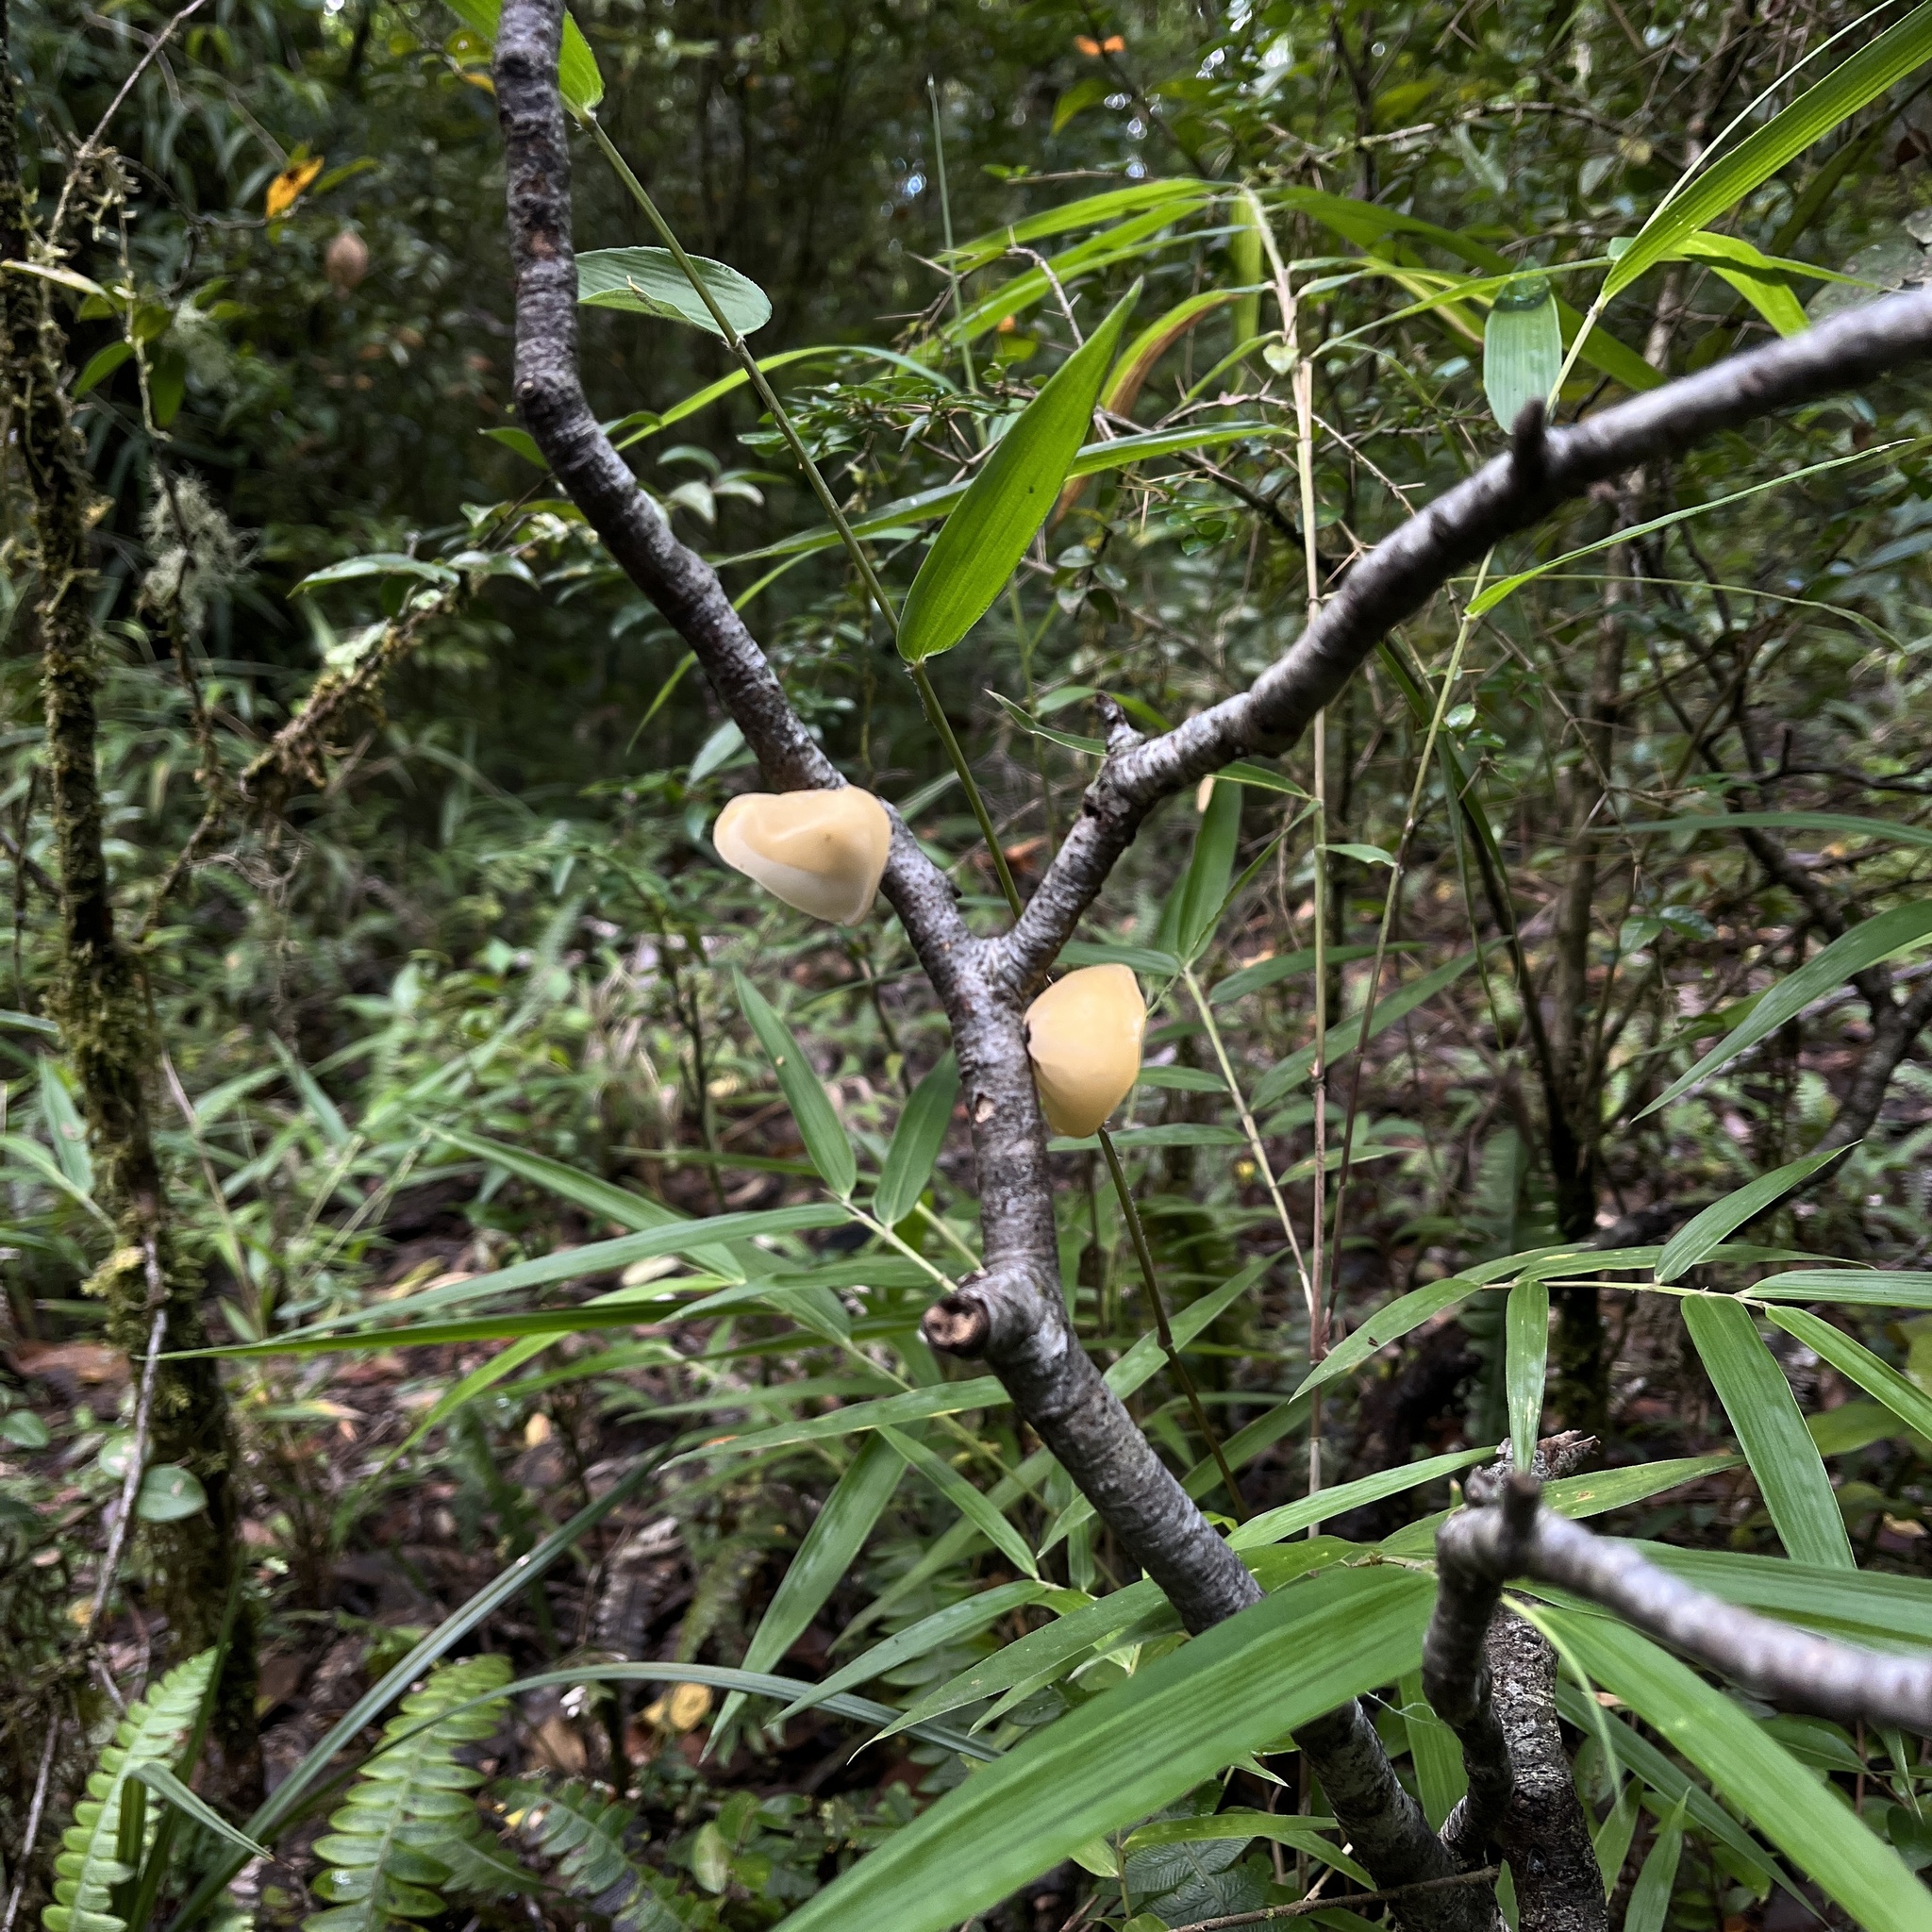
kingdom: Fungi
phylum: Basidiomycota
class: Agaricomycetes
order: Russulales
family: Stereaceae
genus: Aleurodiscus
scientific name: Aleurodiscus vitellinus
